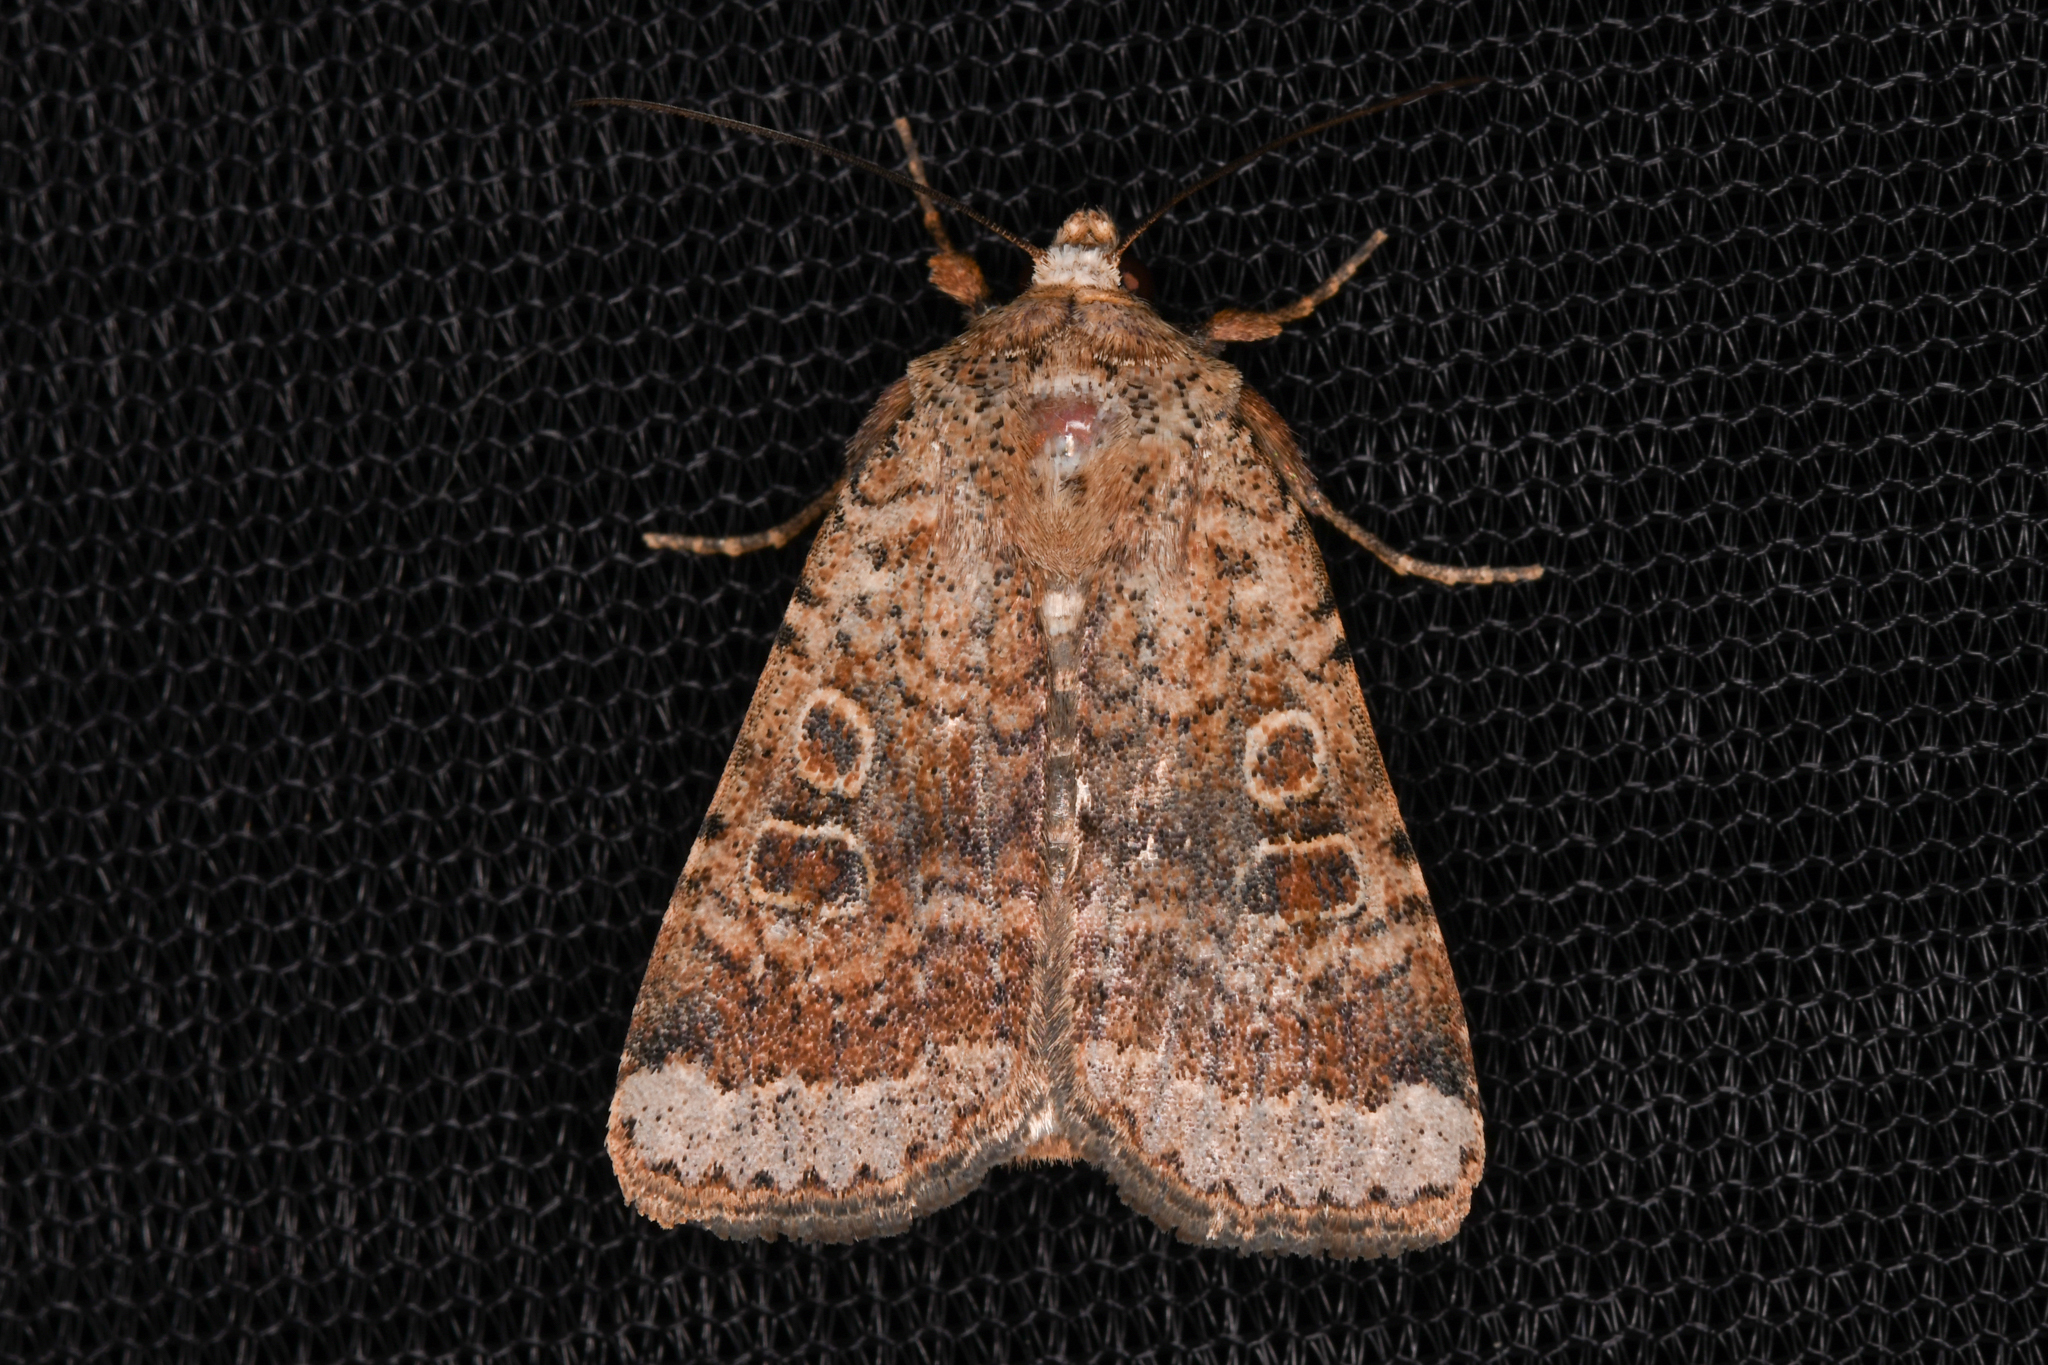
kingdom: Animalia
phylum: Arthropoda
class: Insecta
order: Lepidoptera
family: Noctuidae
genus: Abagrotis
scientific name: Abagrotis scopeops
